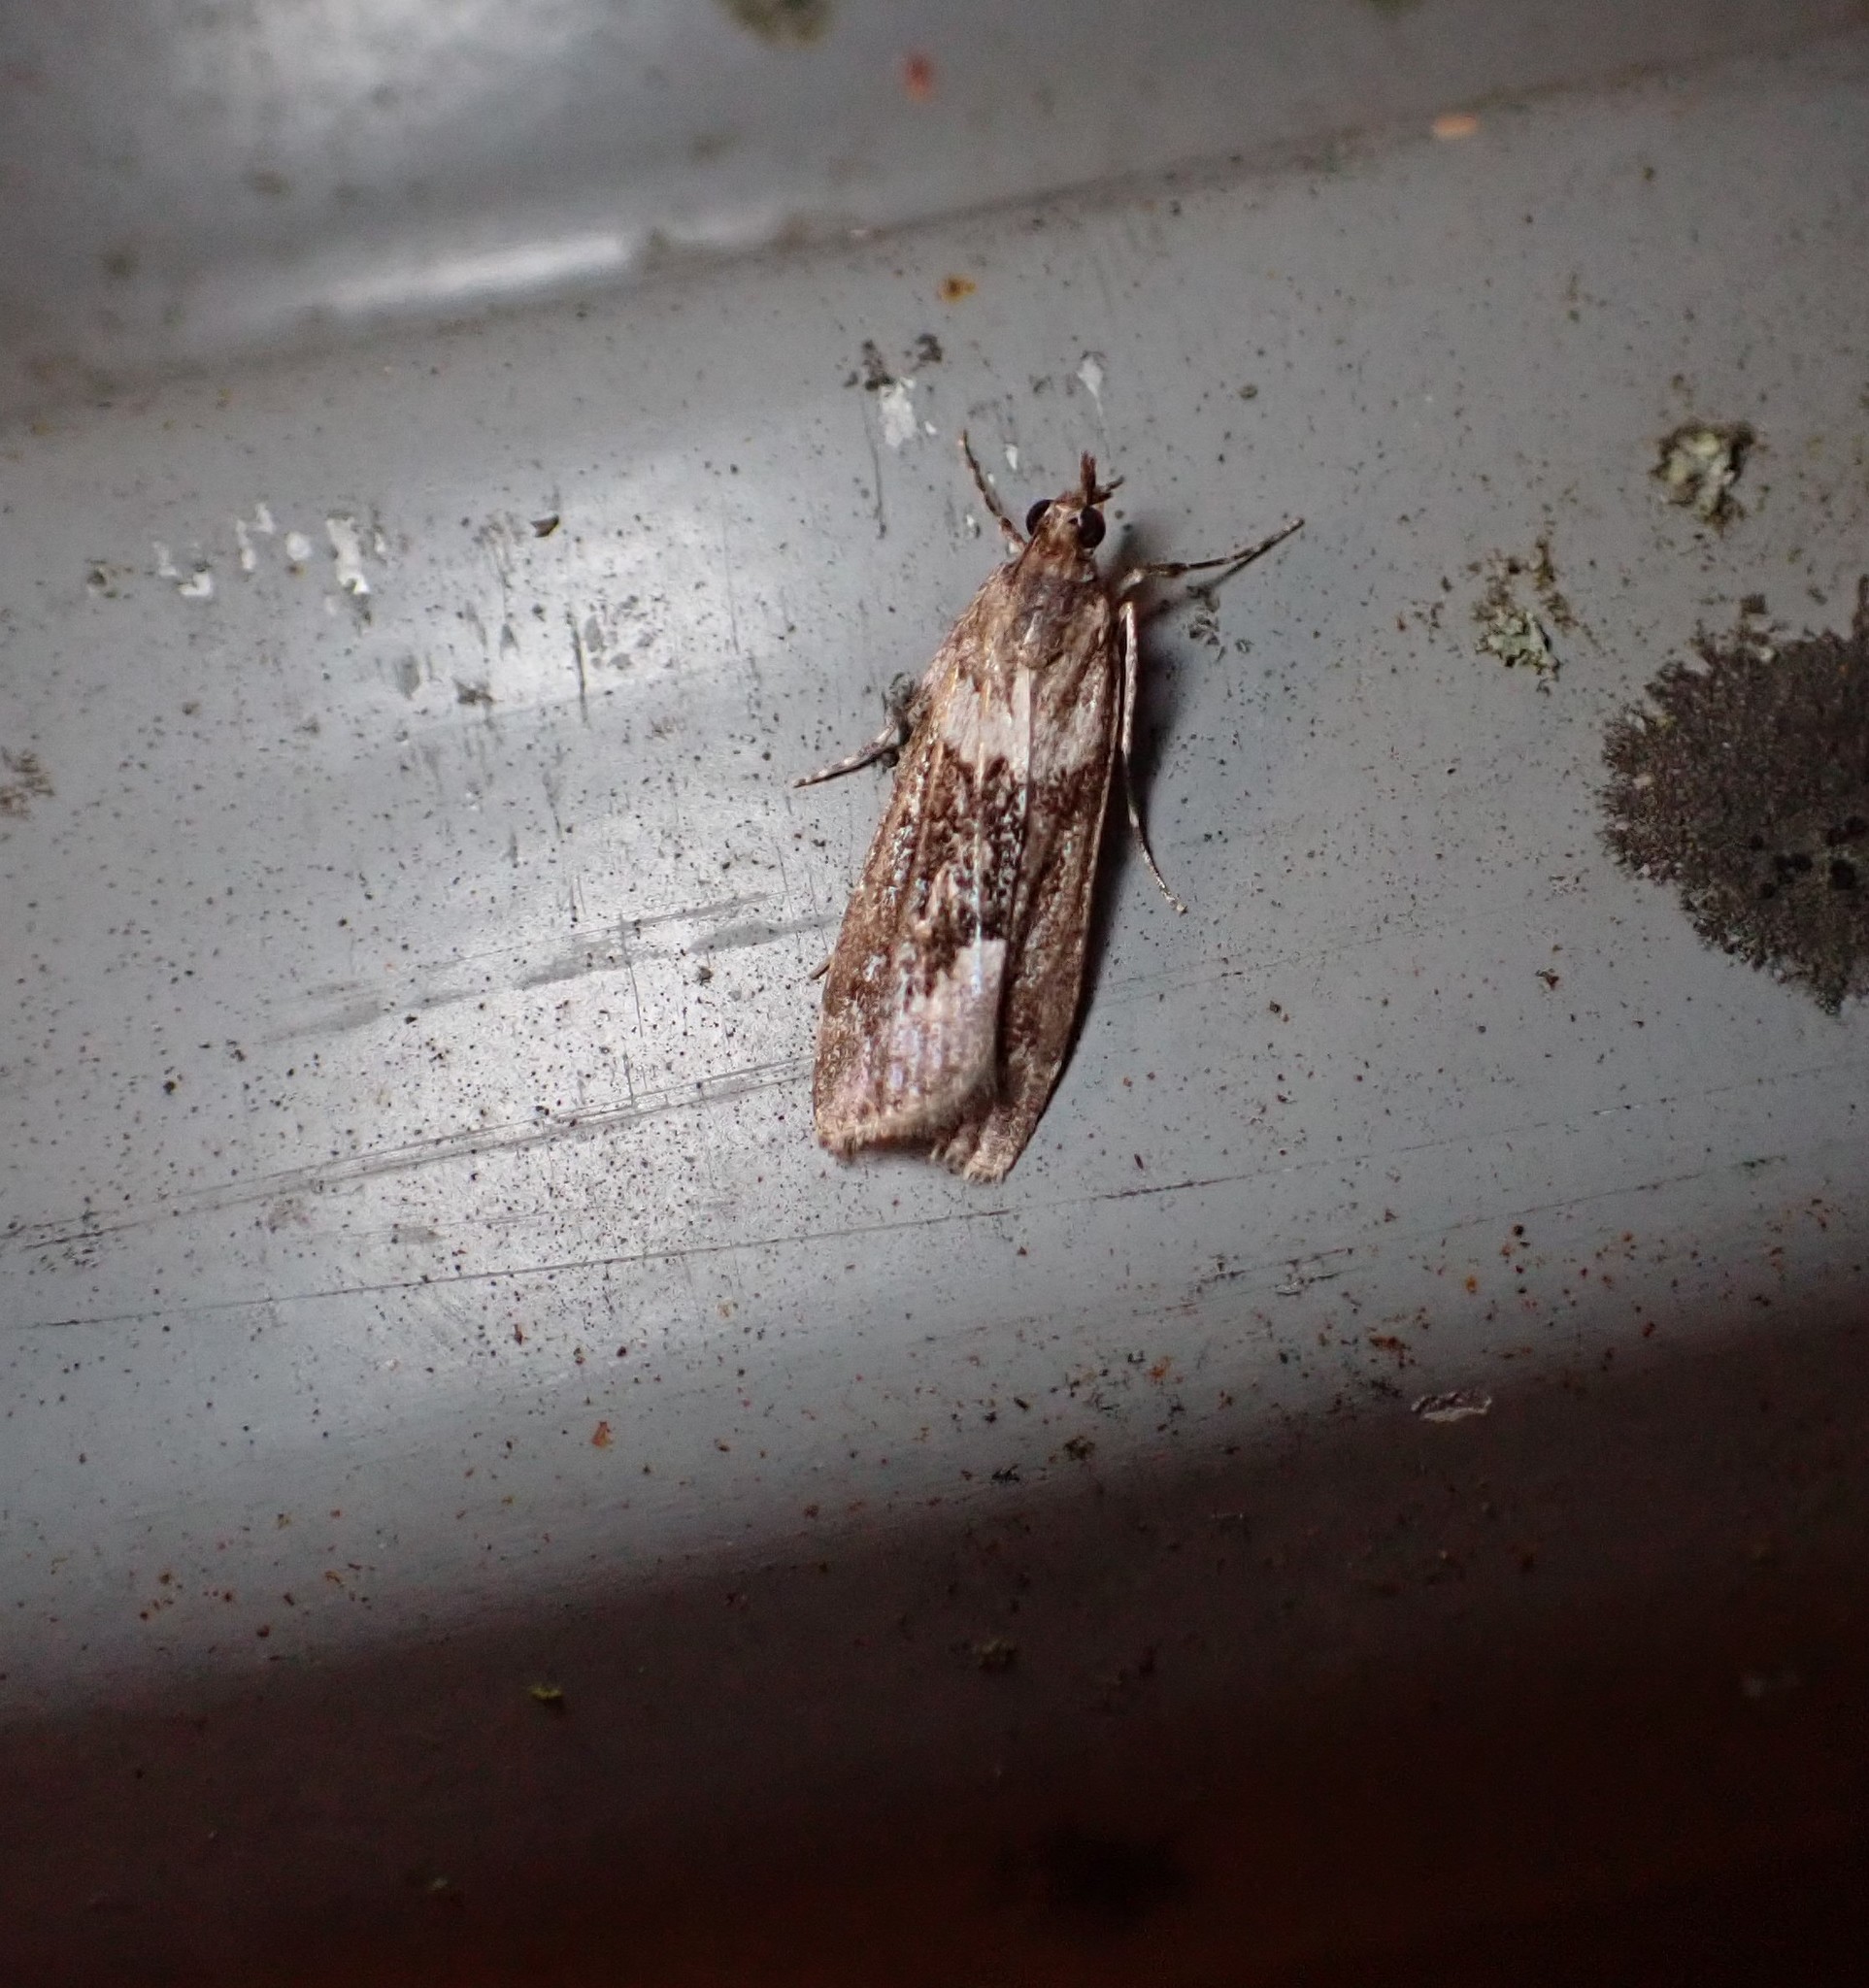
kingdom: Animalia
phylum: Arthropoda
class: Insecta
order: Lepidoptera
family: Crambidae
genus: Eudonia
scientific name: Eudonia submarginalis
